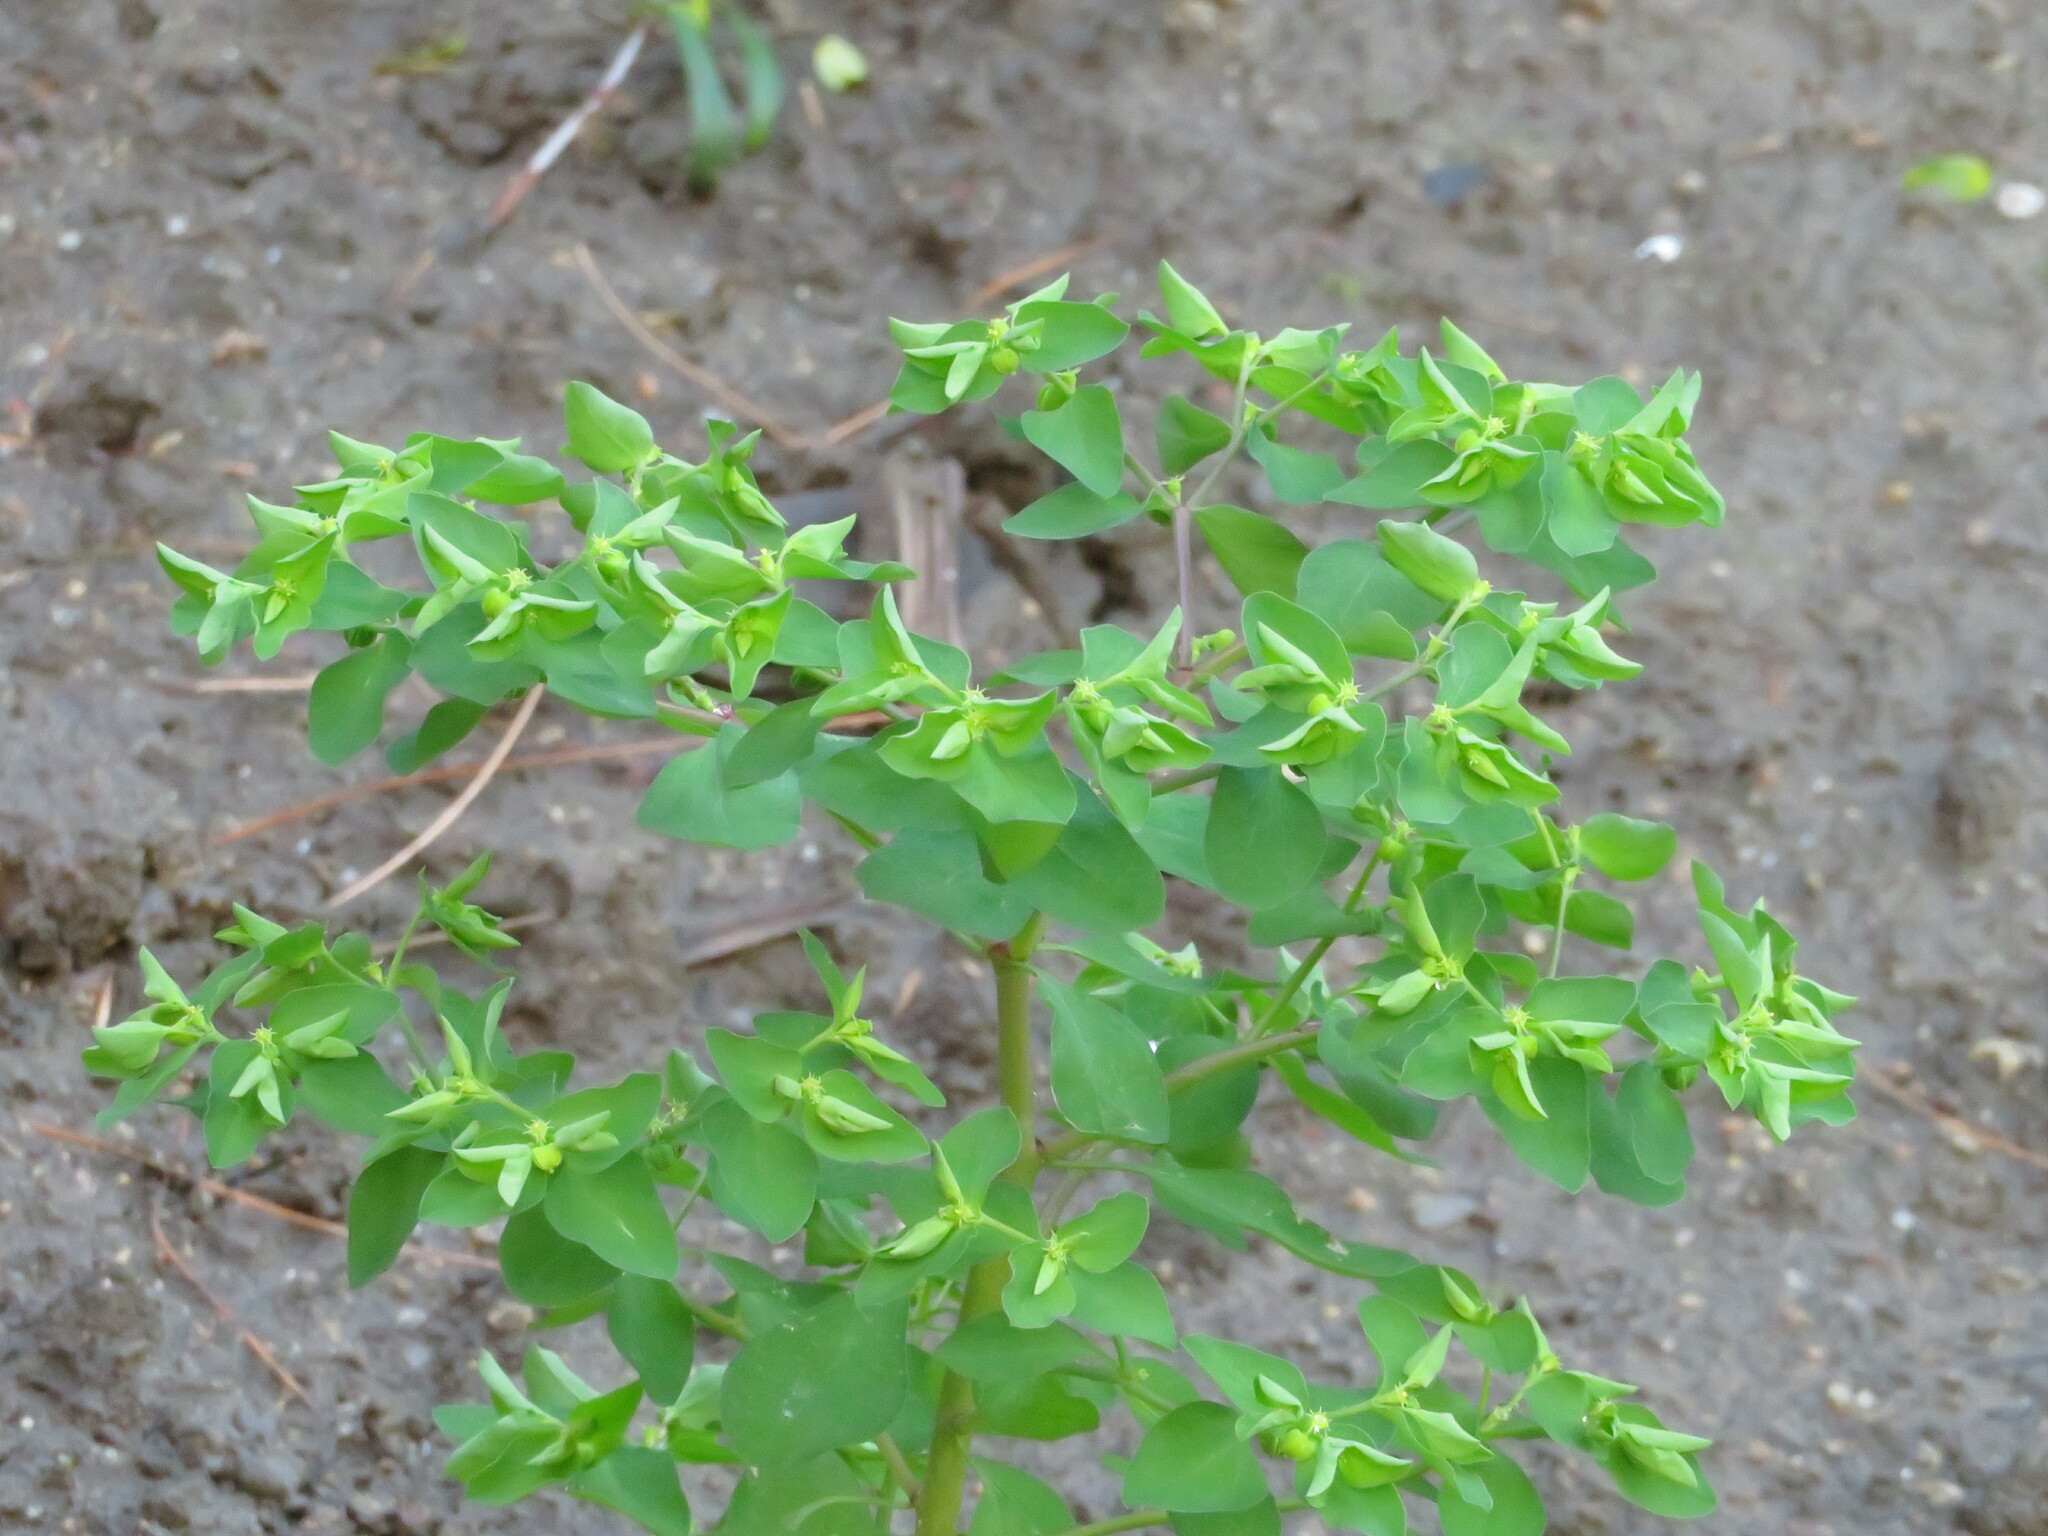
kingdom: Plantae
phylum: Tracheophyta
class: Magnoliopsida
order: Malpighiales
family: Euphorbiaceae
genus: Euphorbia
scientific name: Euphorbia peplus
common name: Petty spurge
